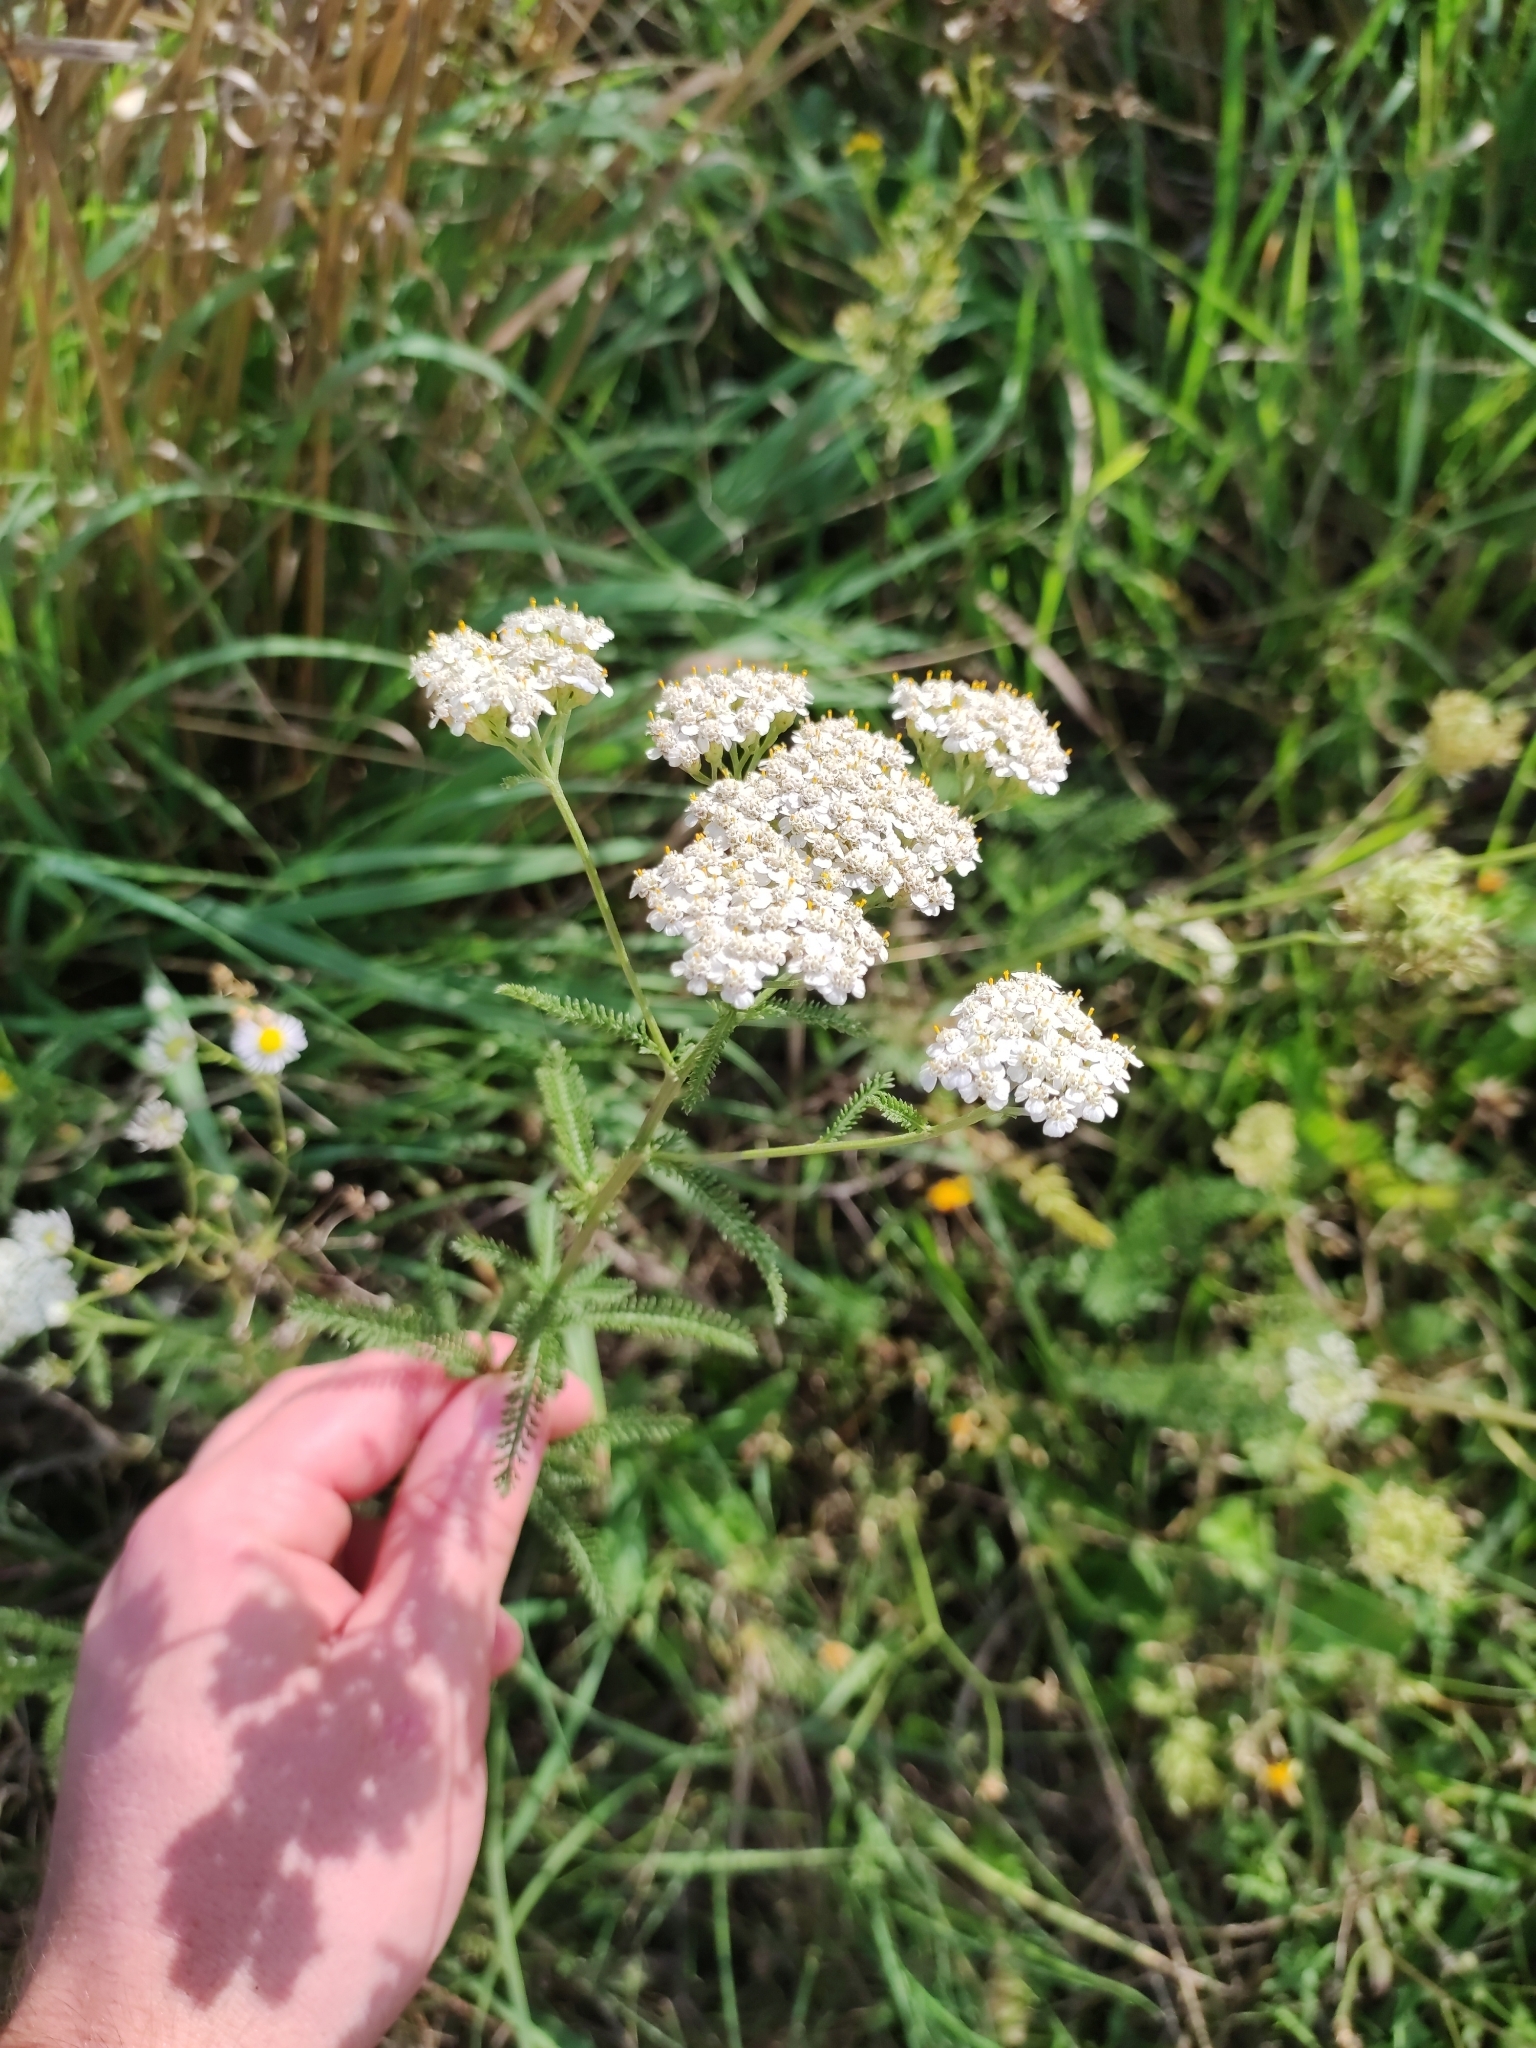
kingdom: Plantae
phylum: Tracheophyta
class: Magnoliopsida
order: Asterales
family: Asteraceae
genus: Achillea
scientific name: Achillea millefolium
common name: Yarrow
